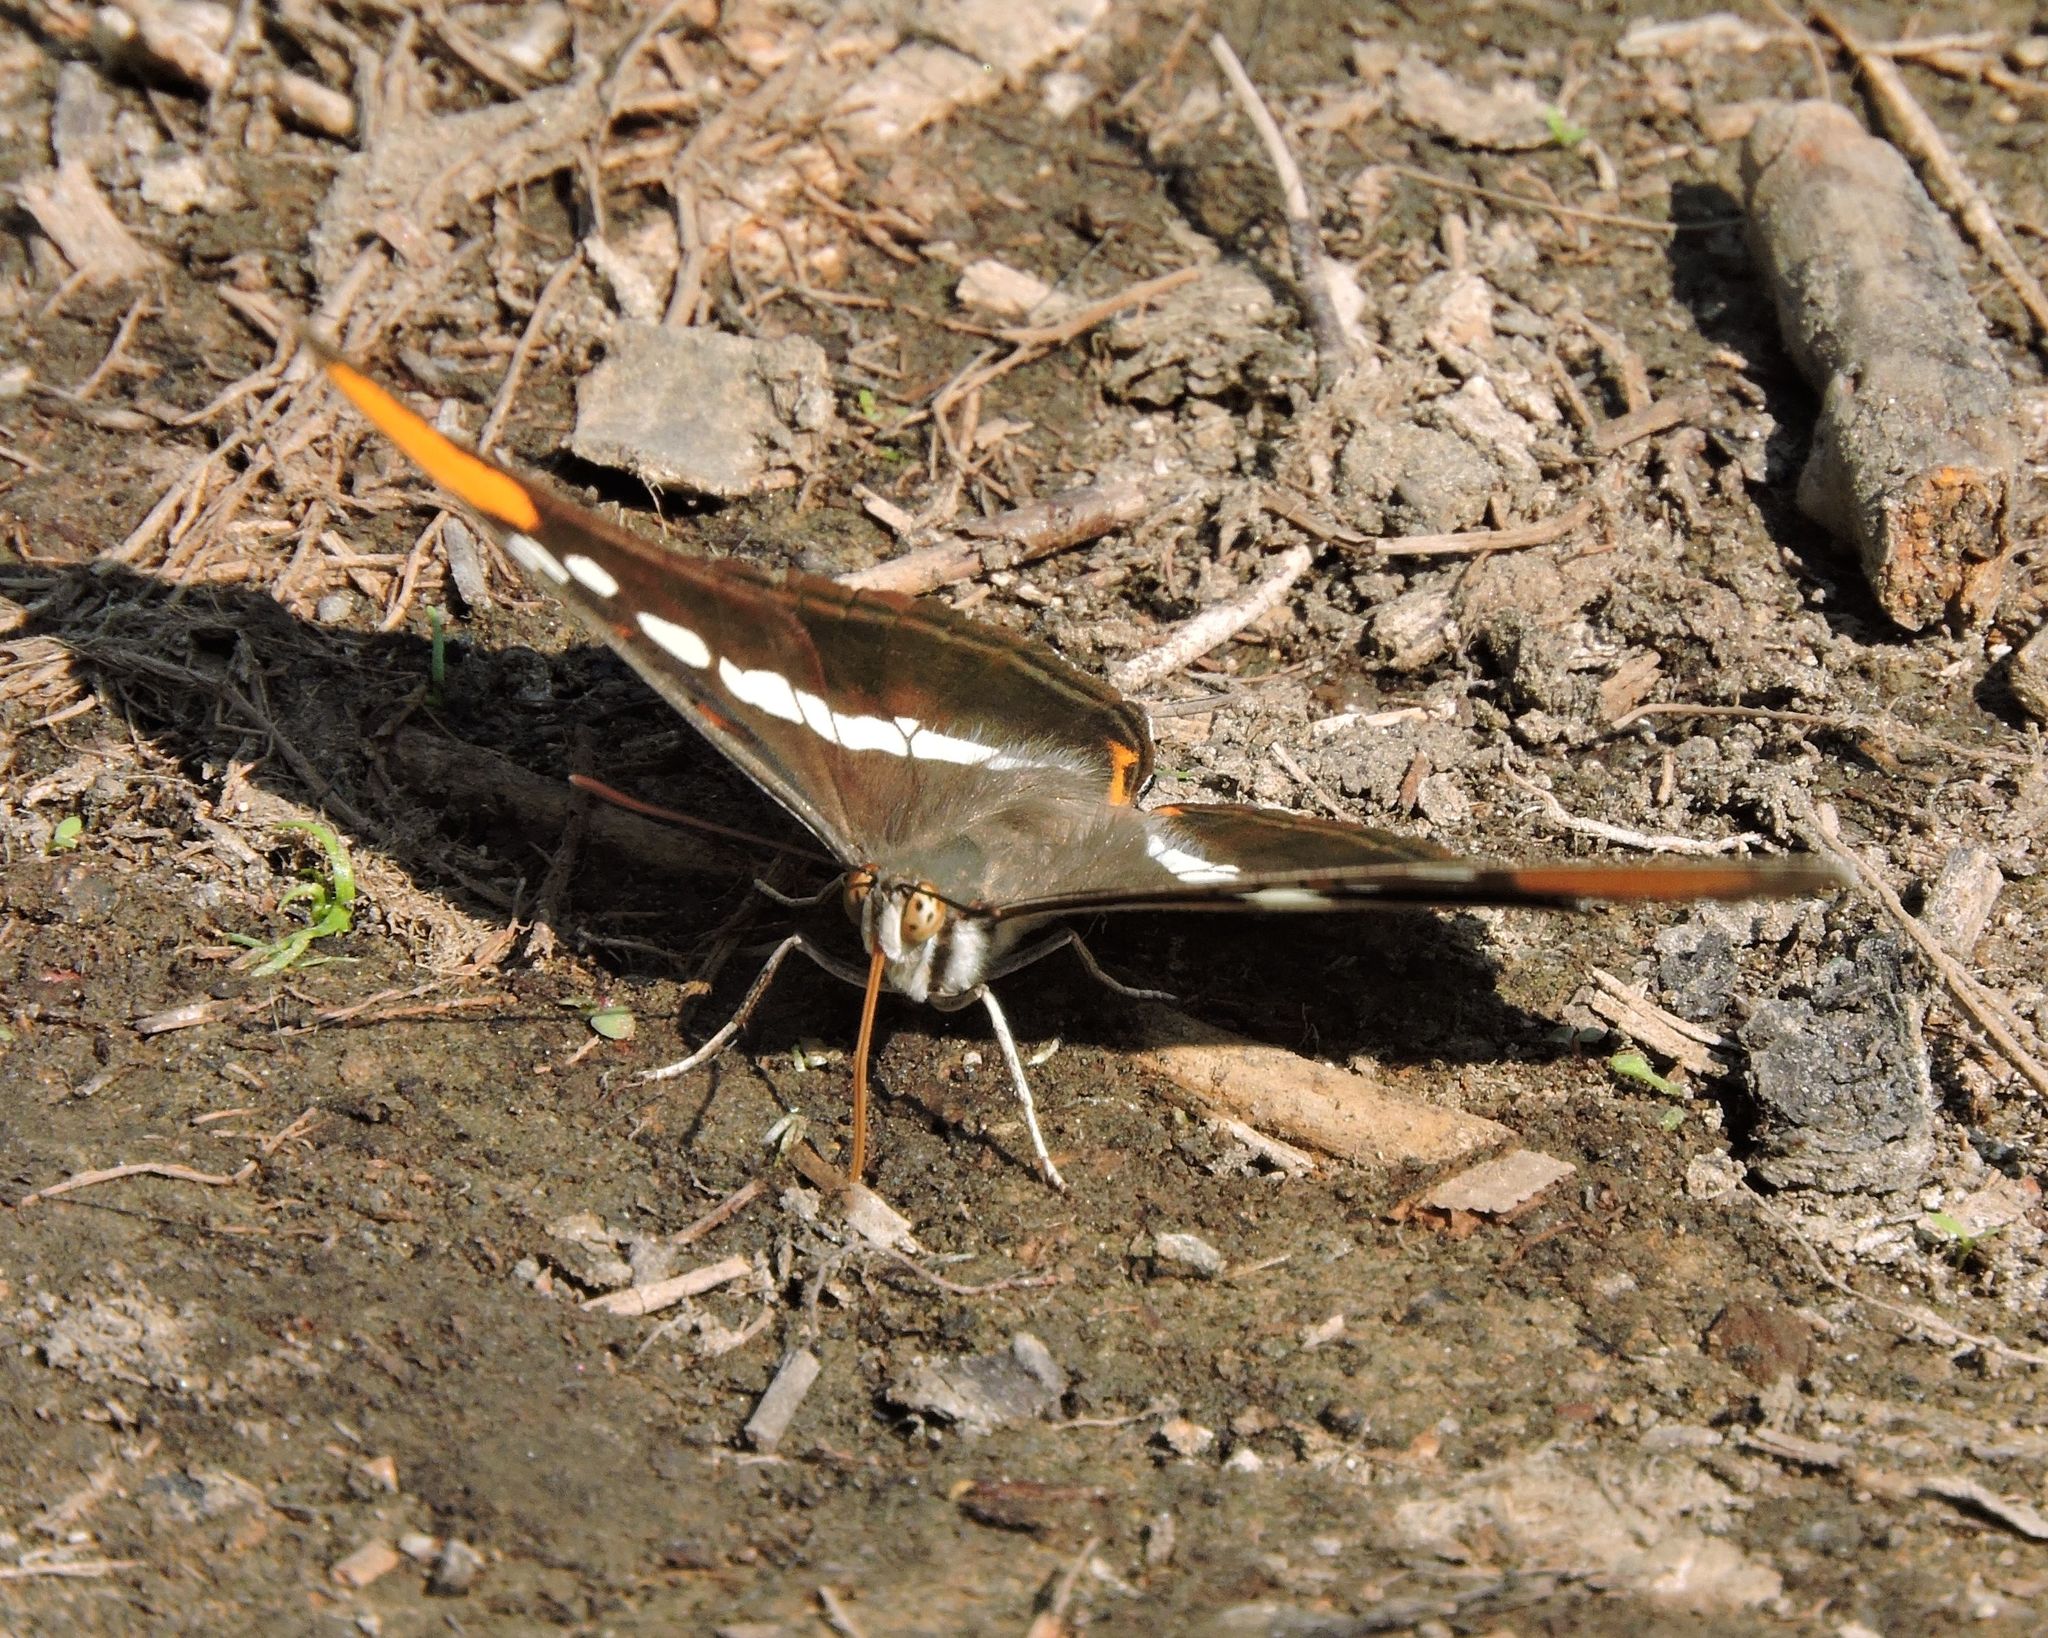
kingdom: Animalia
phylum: Arthropoda
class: Insecta
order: Lepidoptera
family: Nymphalidae
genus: Limenitis
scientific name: Limenitis bredowii
